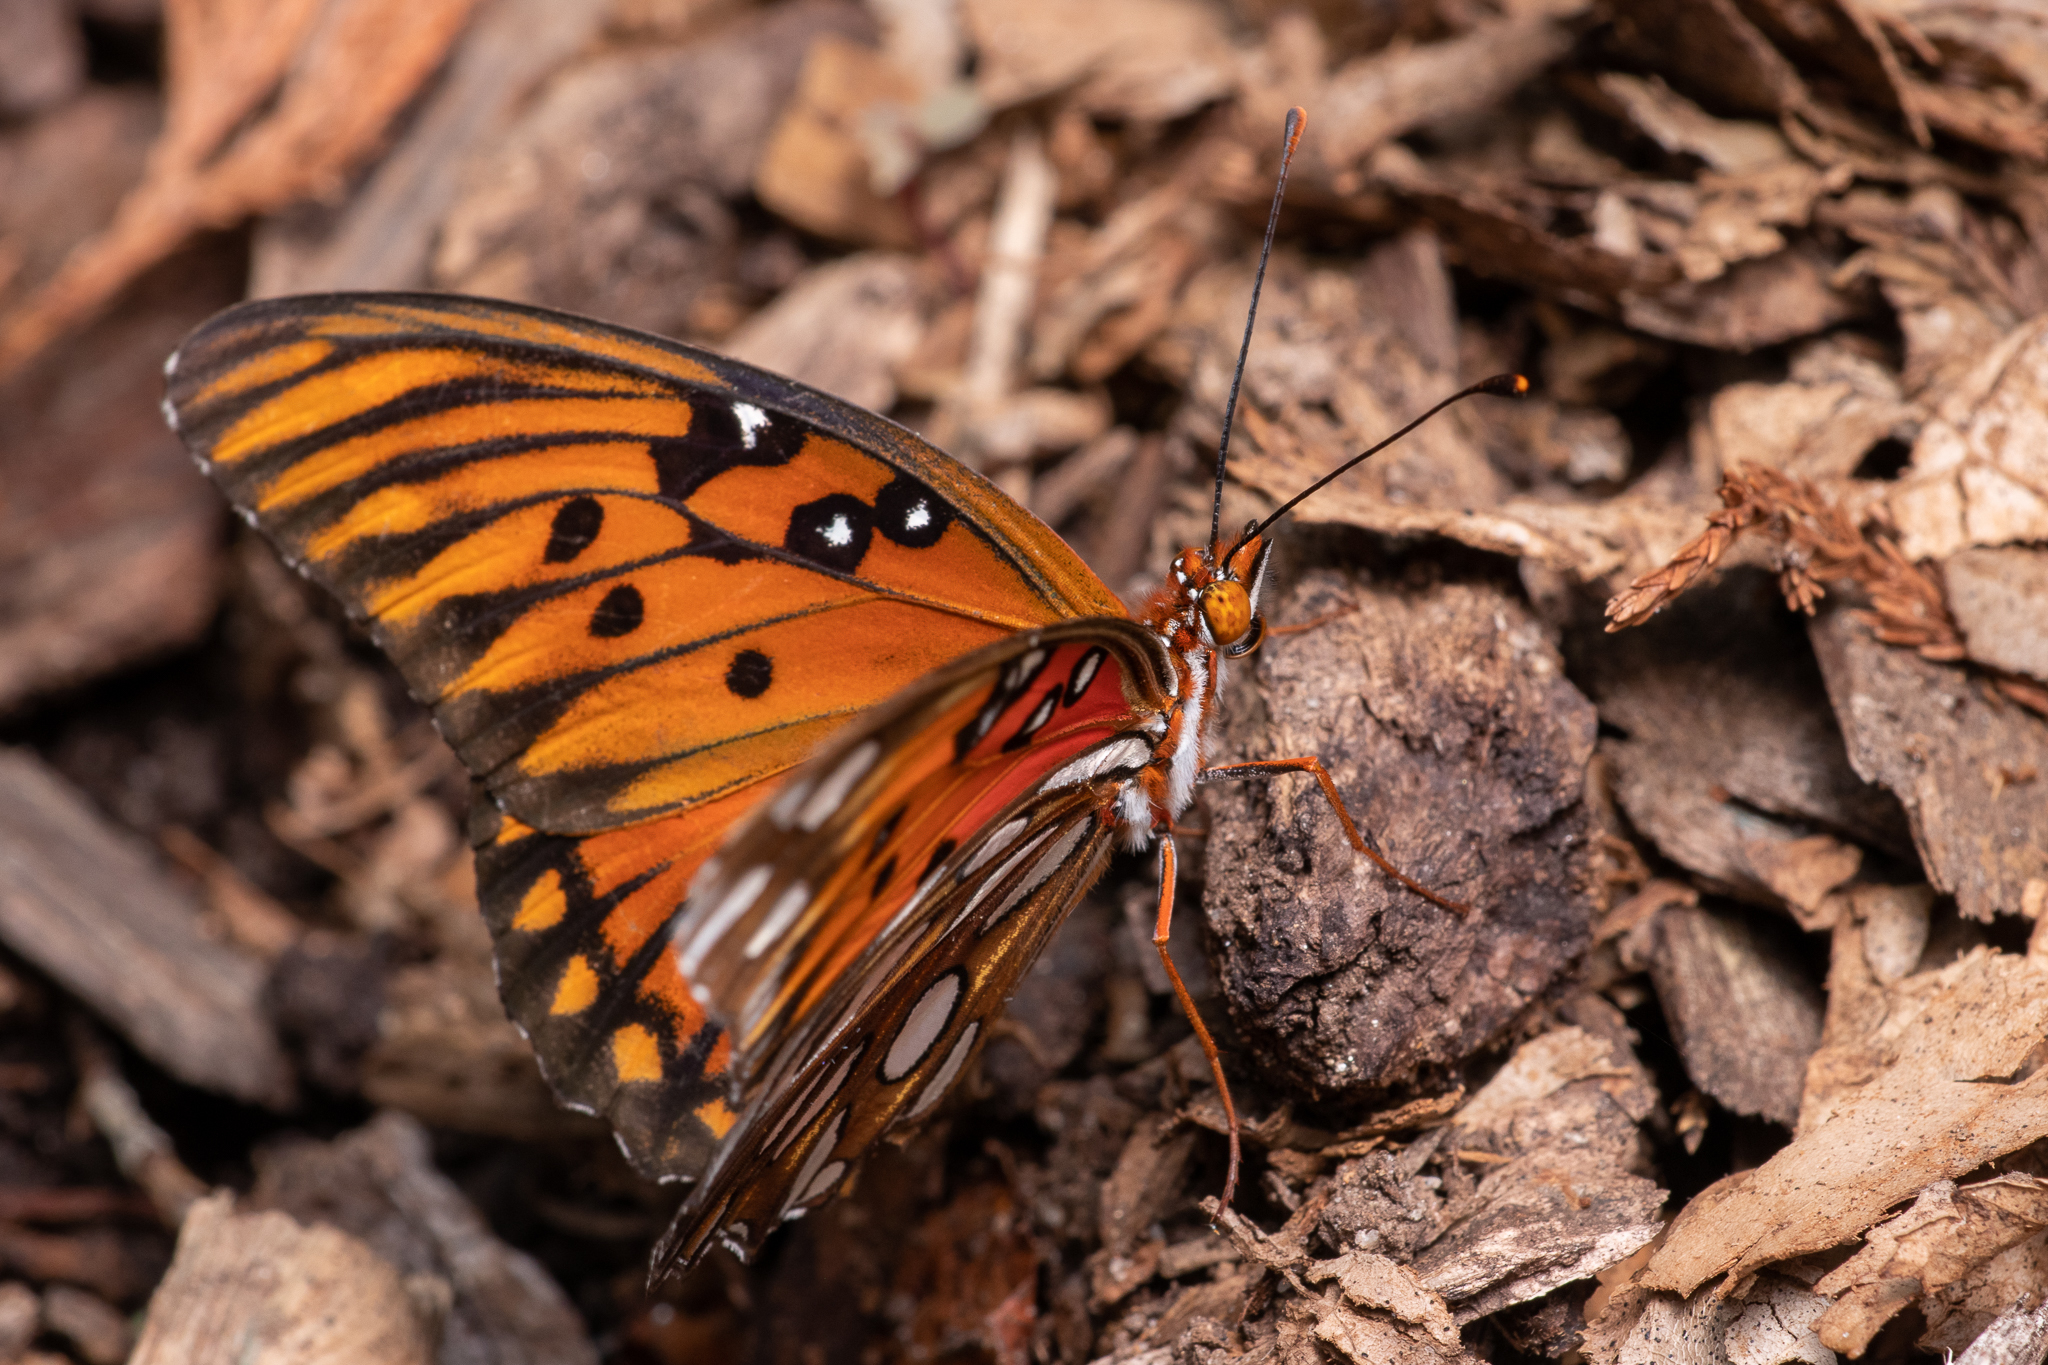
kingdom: Animalia
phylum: Arthropoda
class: Insecta
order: Lepidoptera
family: Nymphalidae
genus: Dione
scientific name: Dione vanillae
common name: Gulf fritillary
